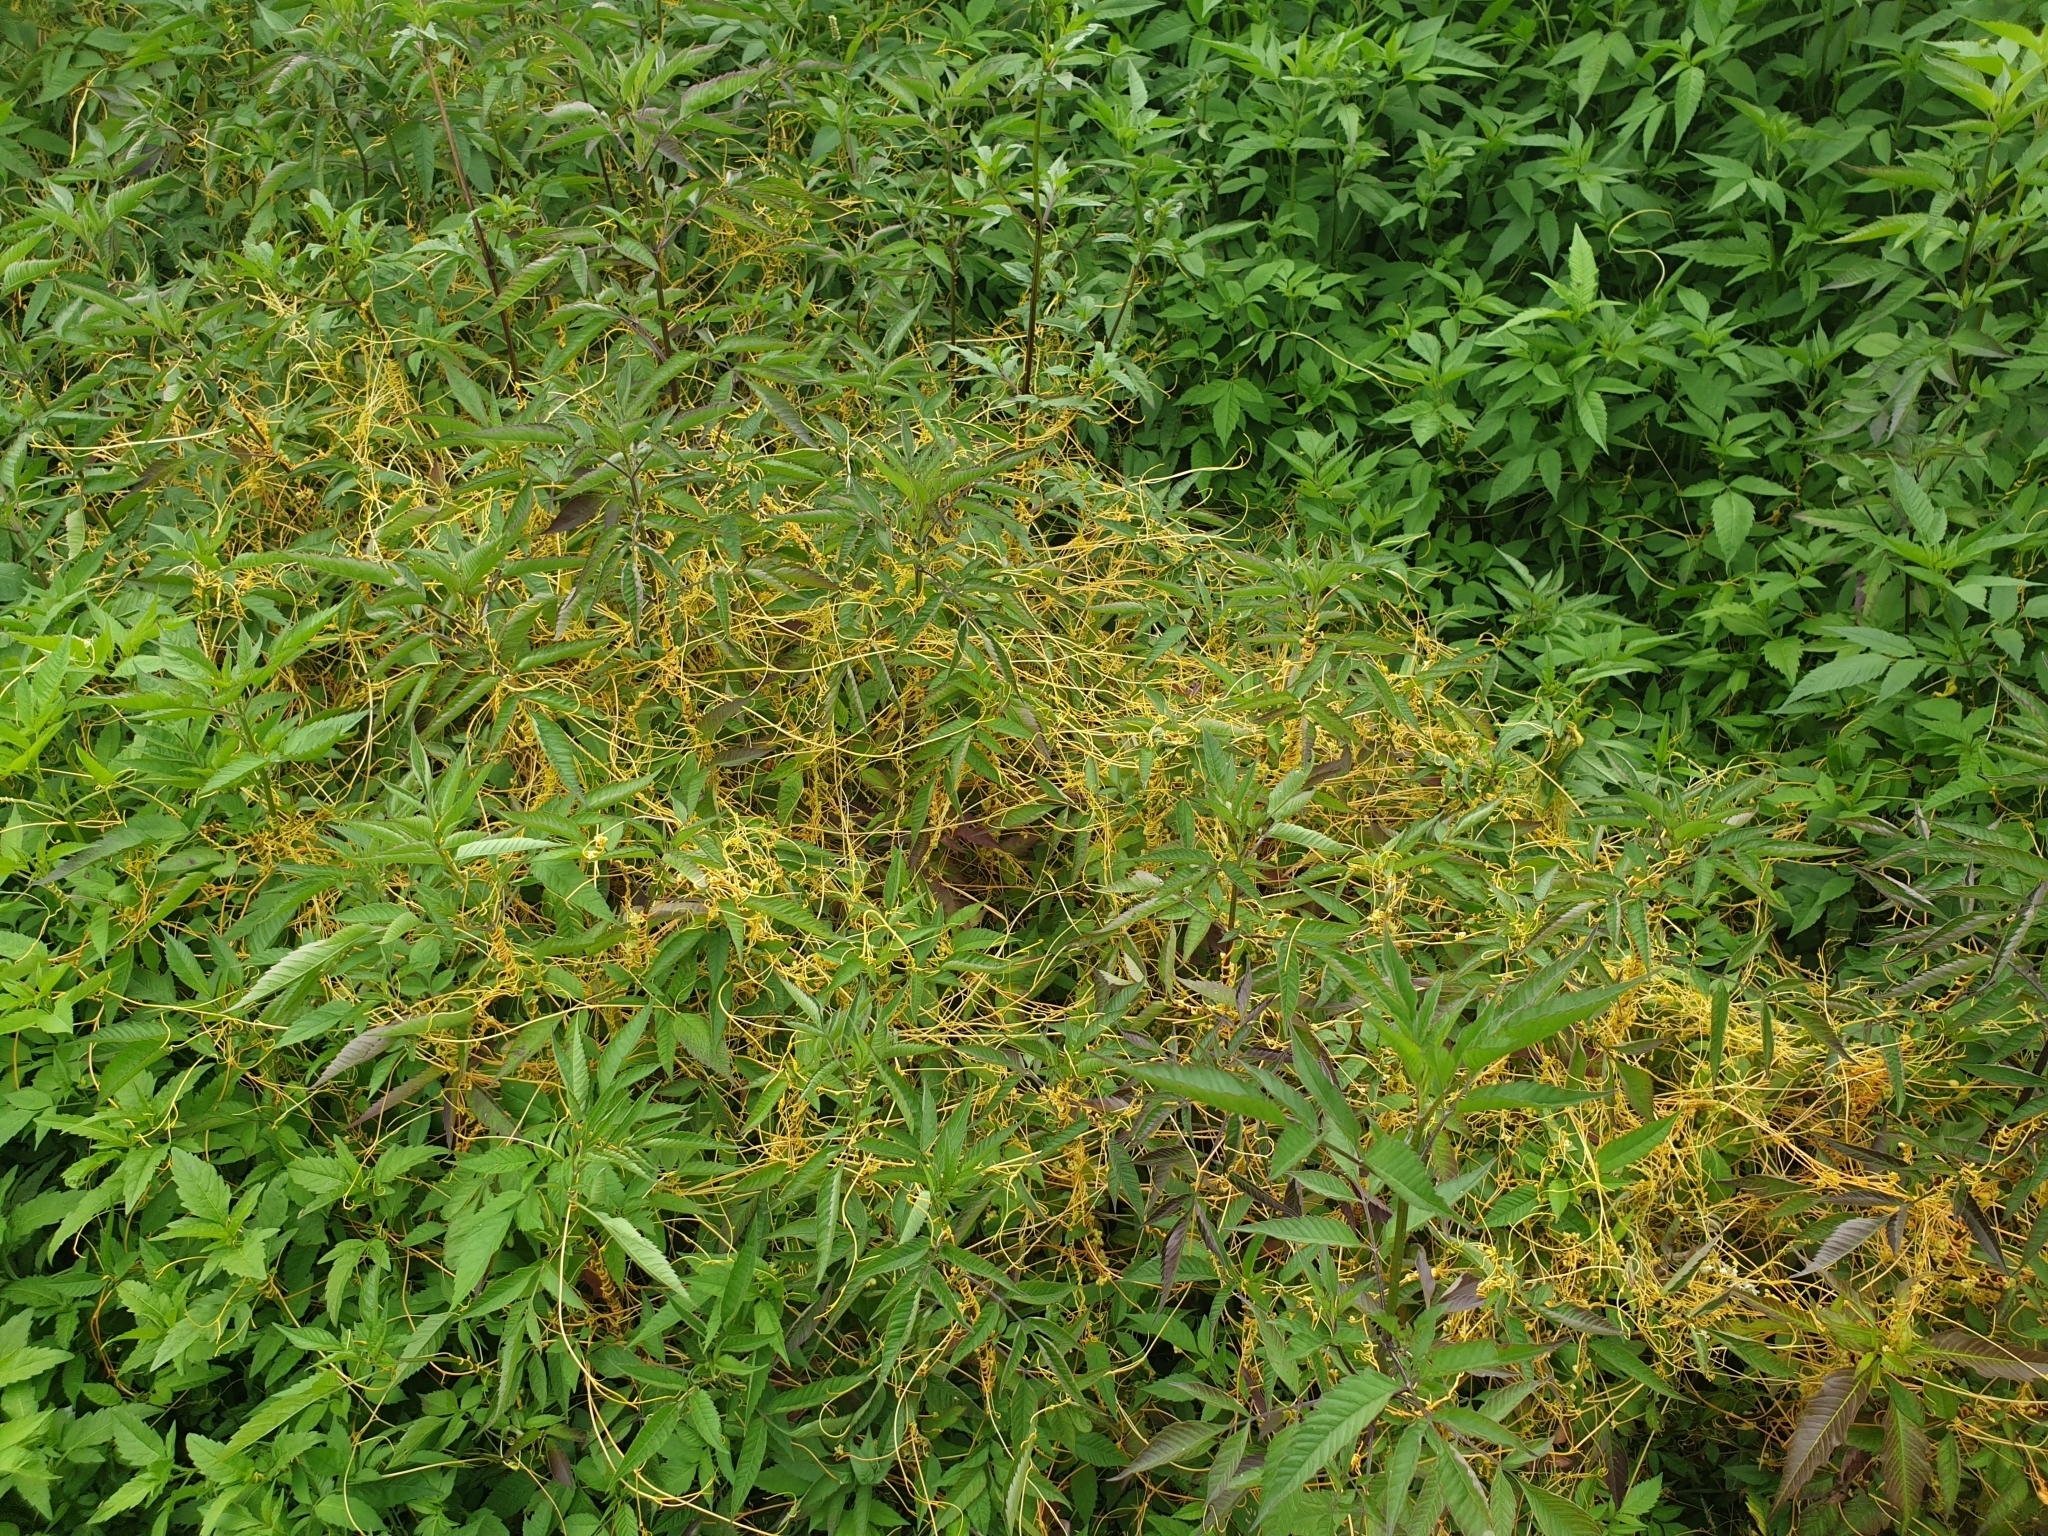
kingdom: Plantae
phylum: Tracheophyta
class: Magnoliopsida
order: Solanales
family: Convolvulaceae
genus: Cuscuta
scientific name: Cuscuta campestris
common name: Yellow dodder
